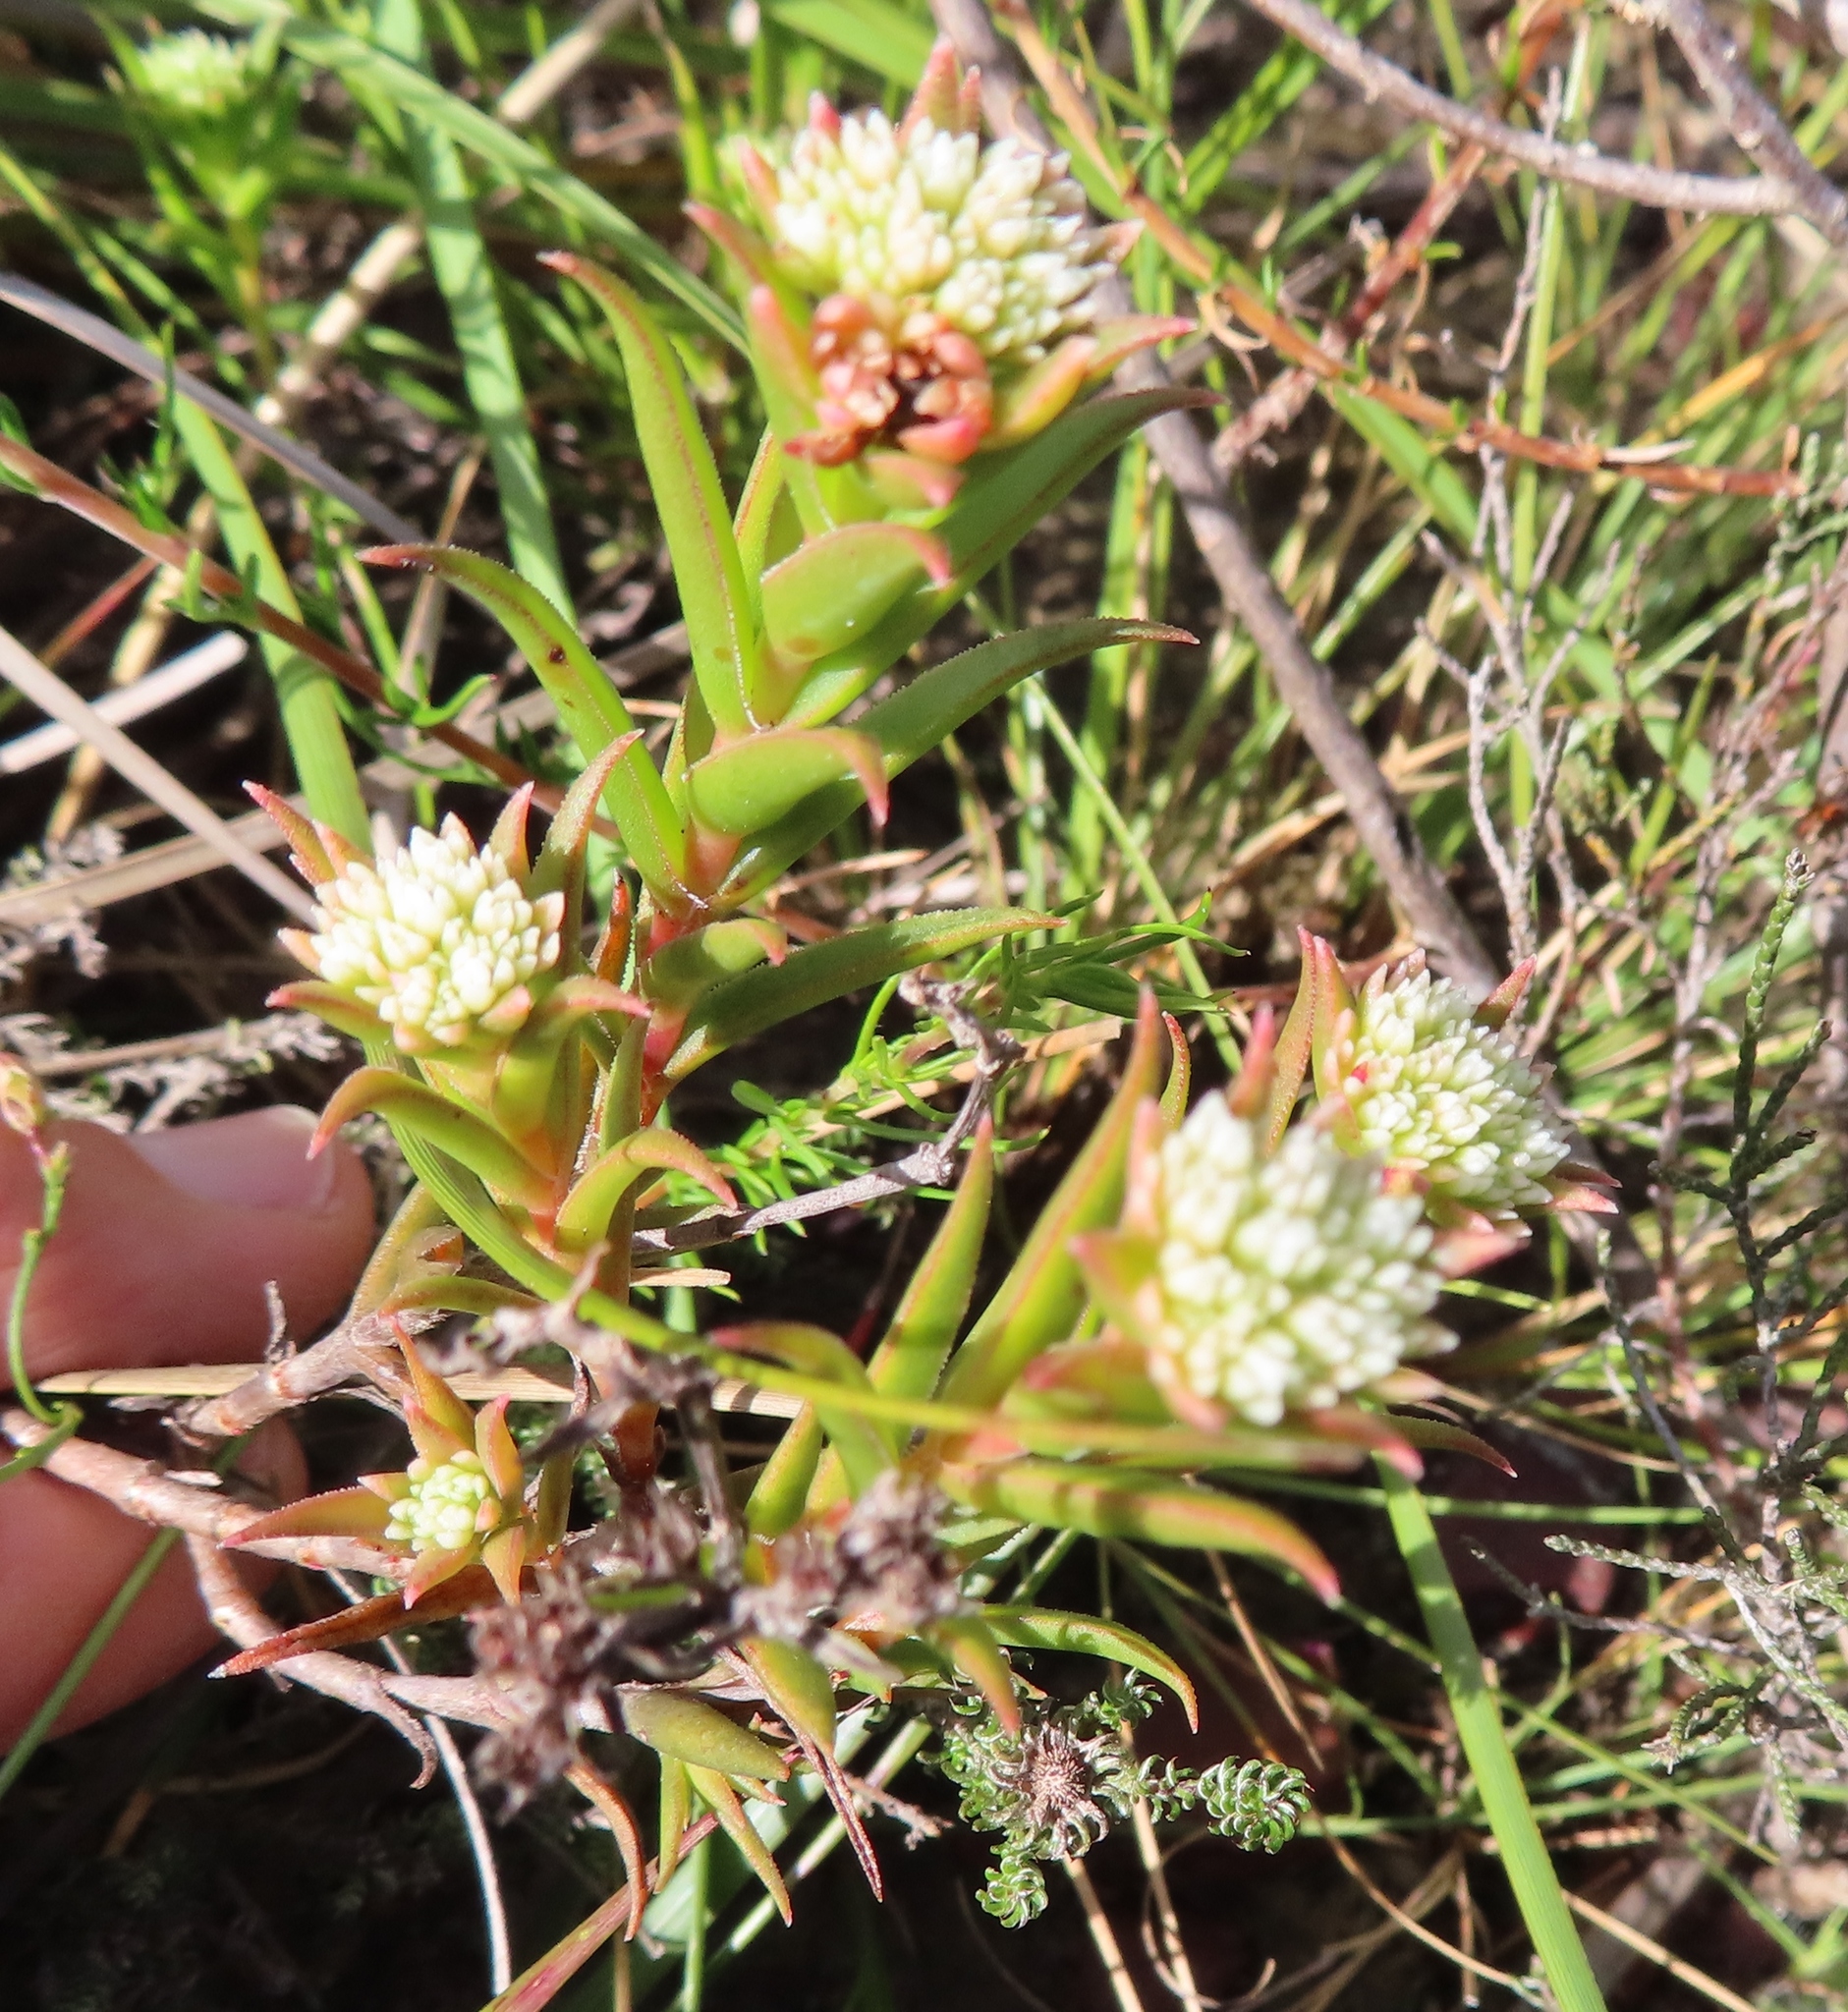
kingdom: Plantae
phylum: Tracheophyta
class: Magnoliopsida
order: Saxifragales
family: Crassulaceae
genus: Crassula
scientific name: Crassula subulata
